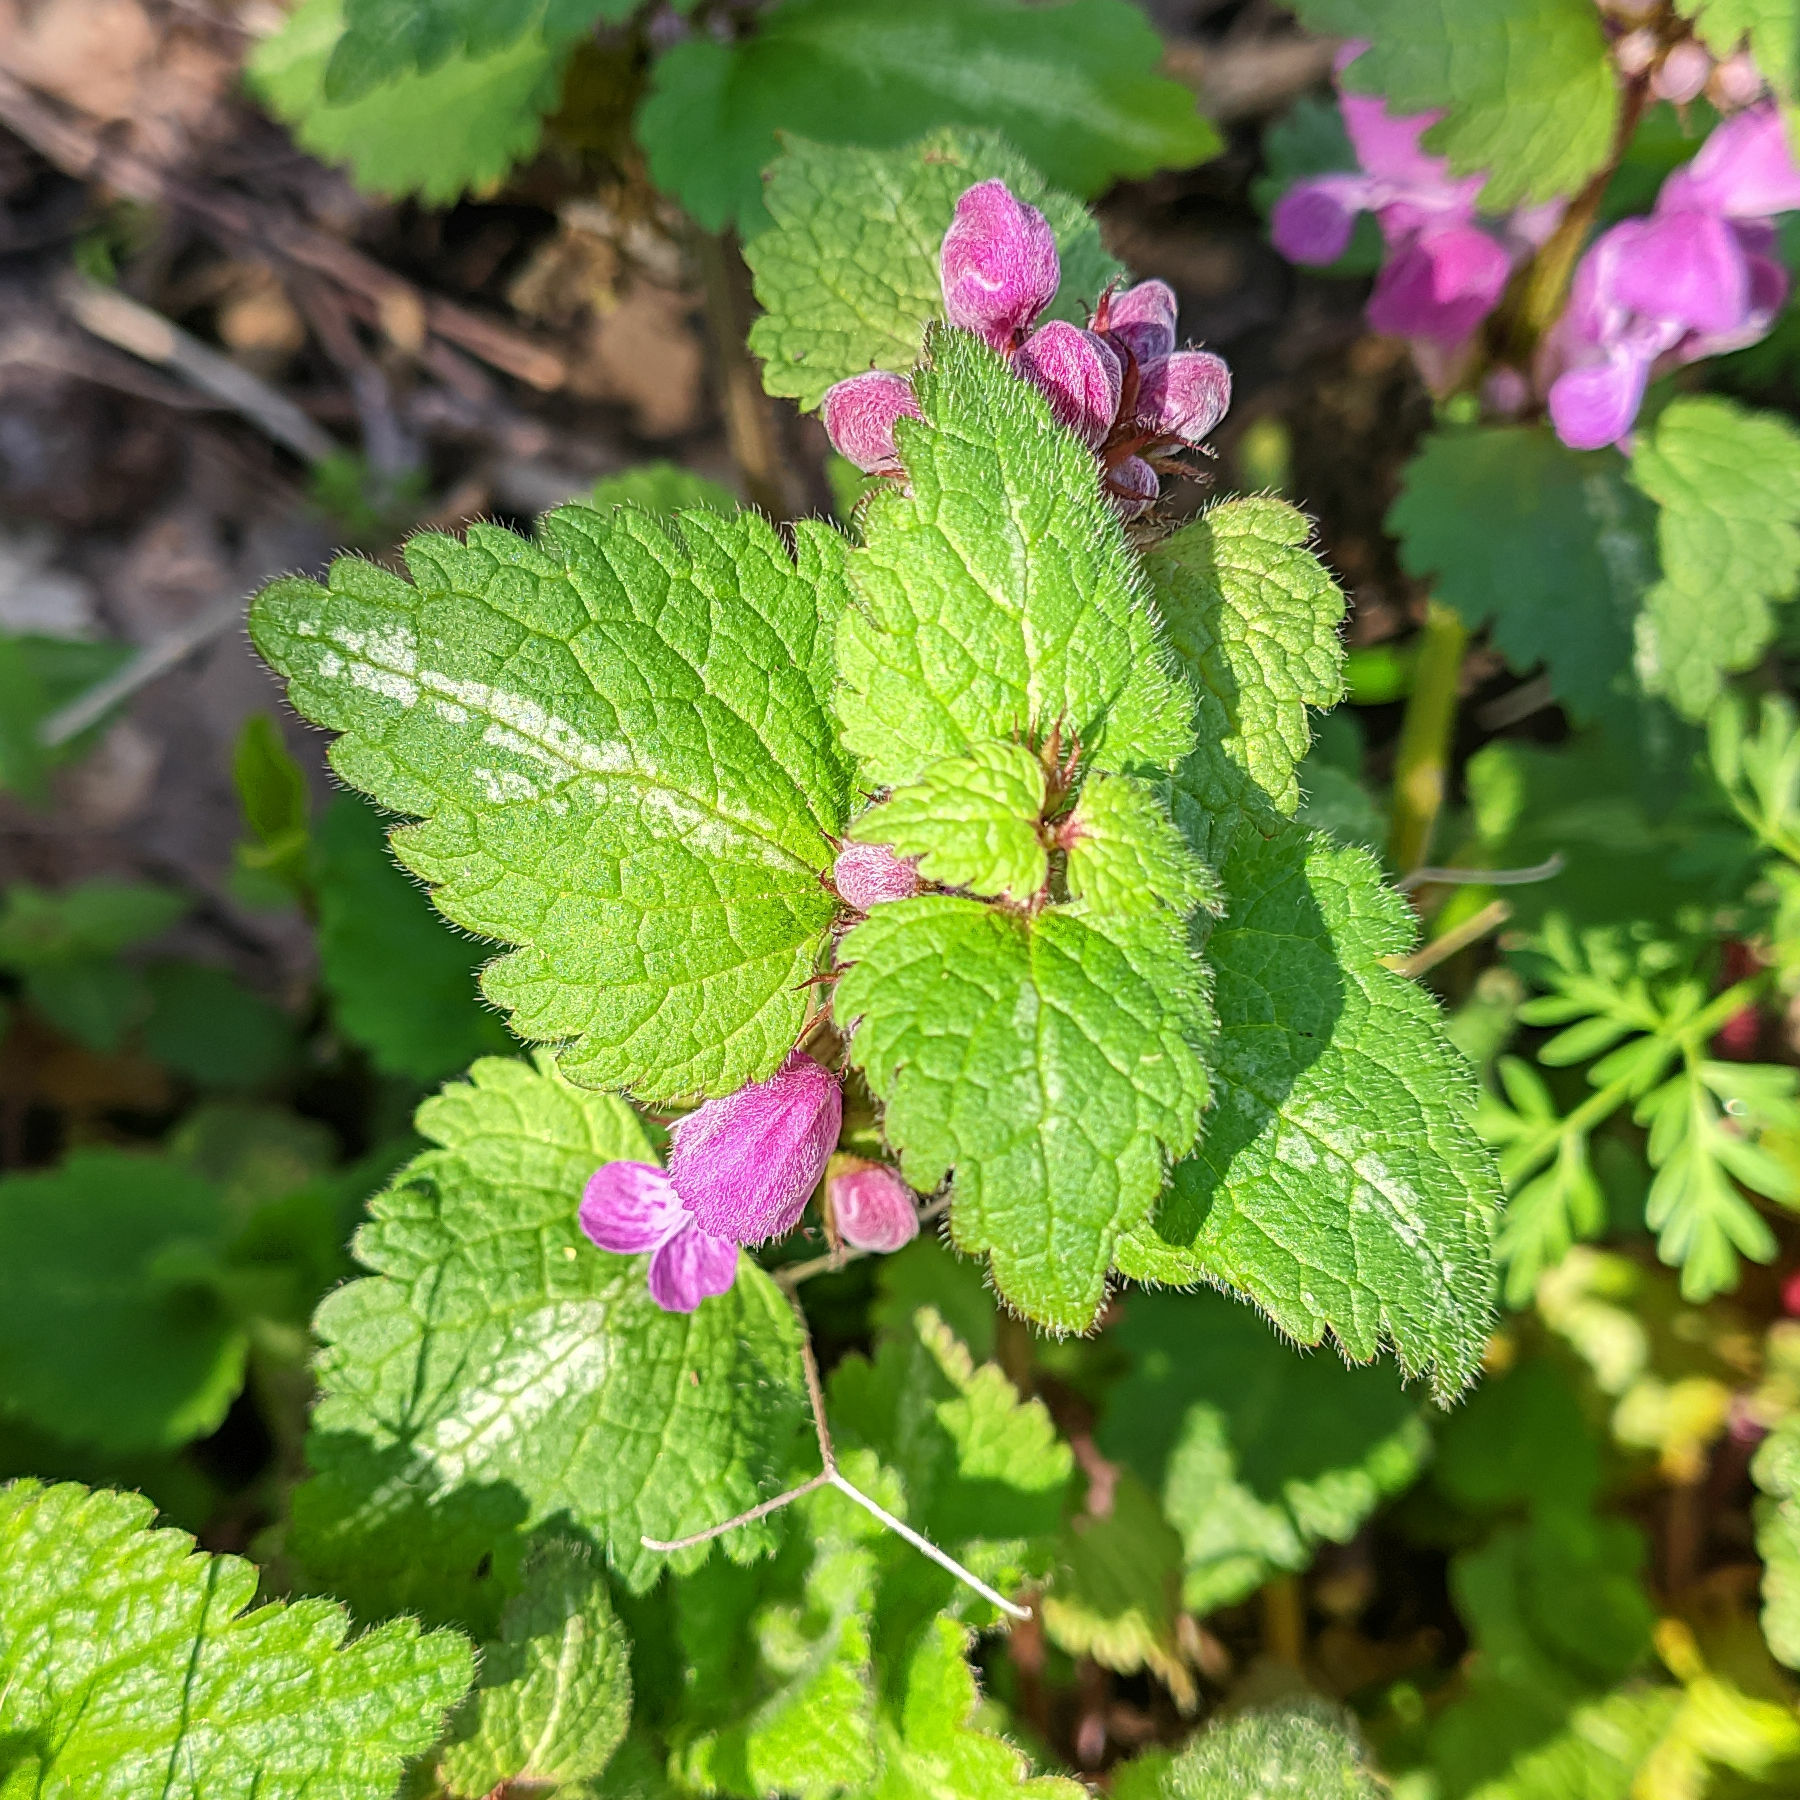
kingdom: Plantae
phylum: Tracheophyta
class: Magnoliopsida
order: Lamiales
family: Lamiaceae
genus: Lamium
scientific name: Lamium maculatum
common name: Spotted dead-nettle
